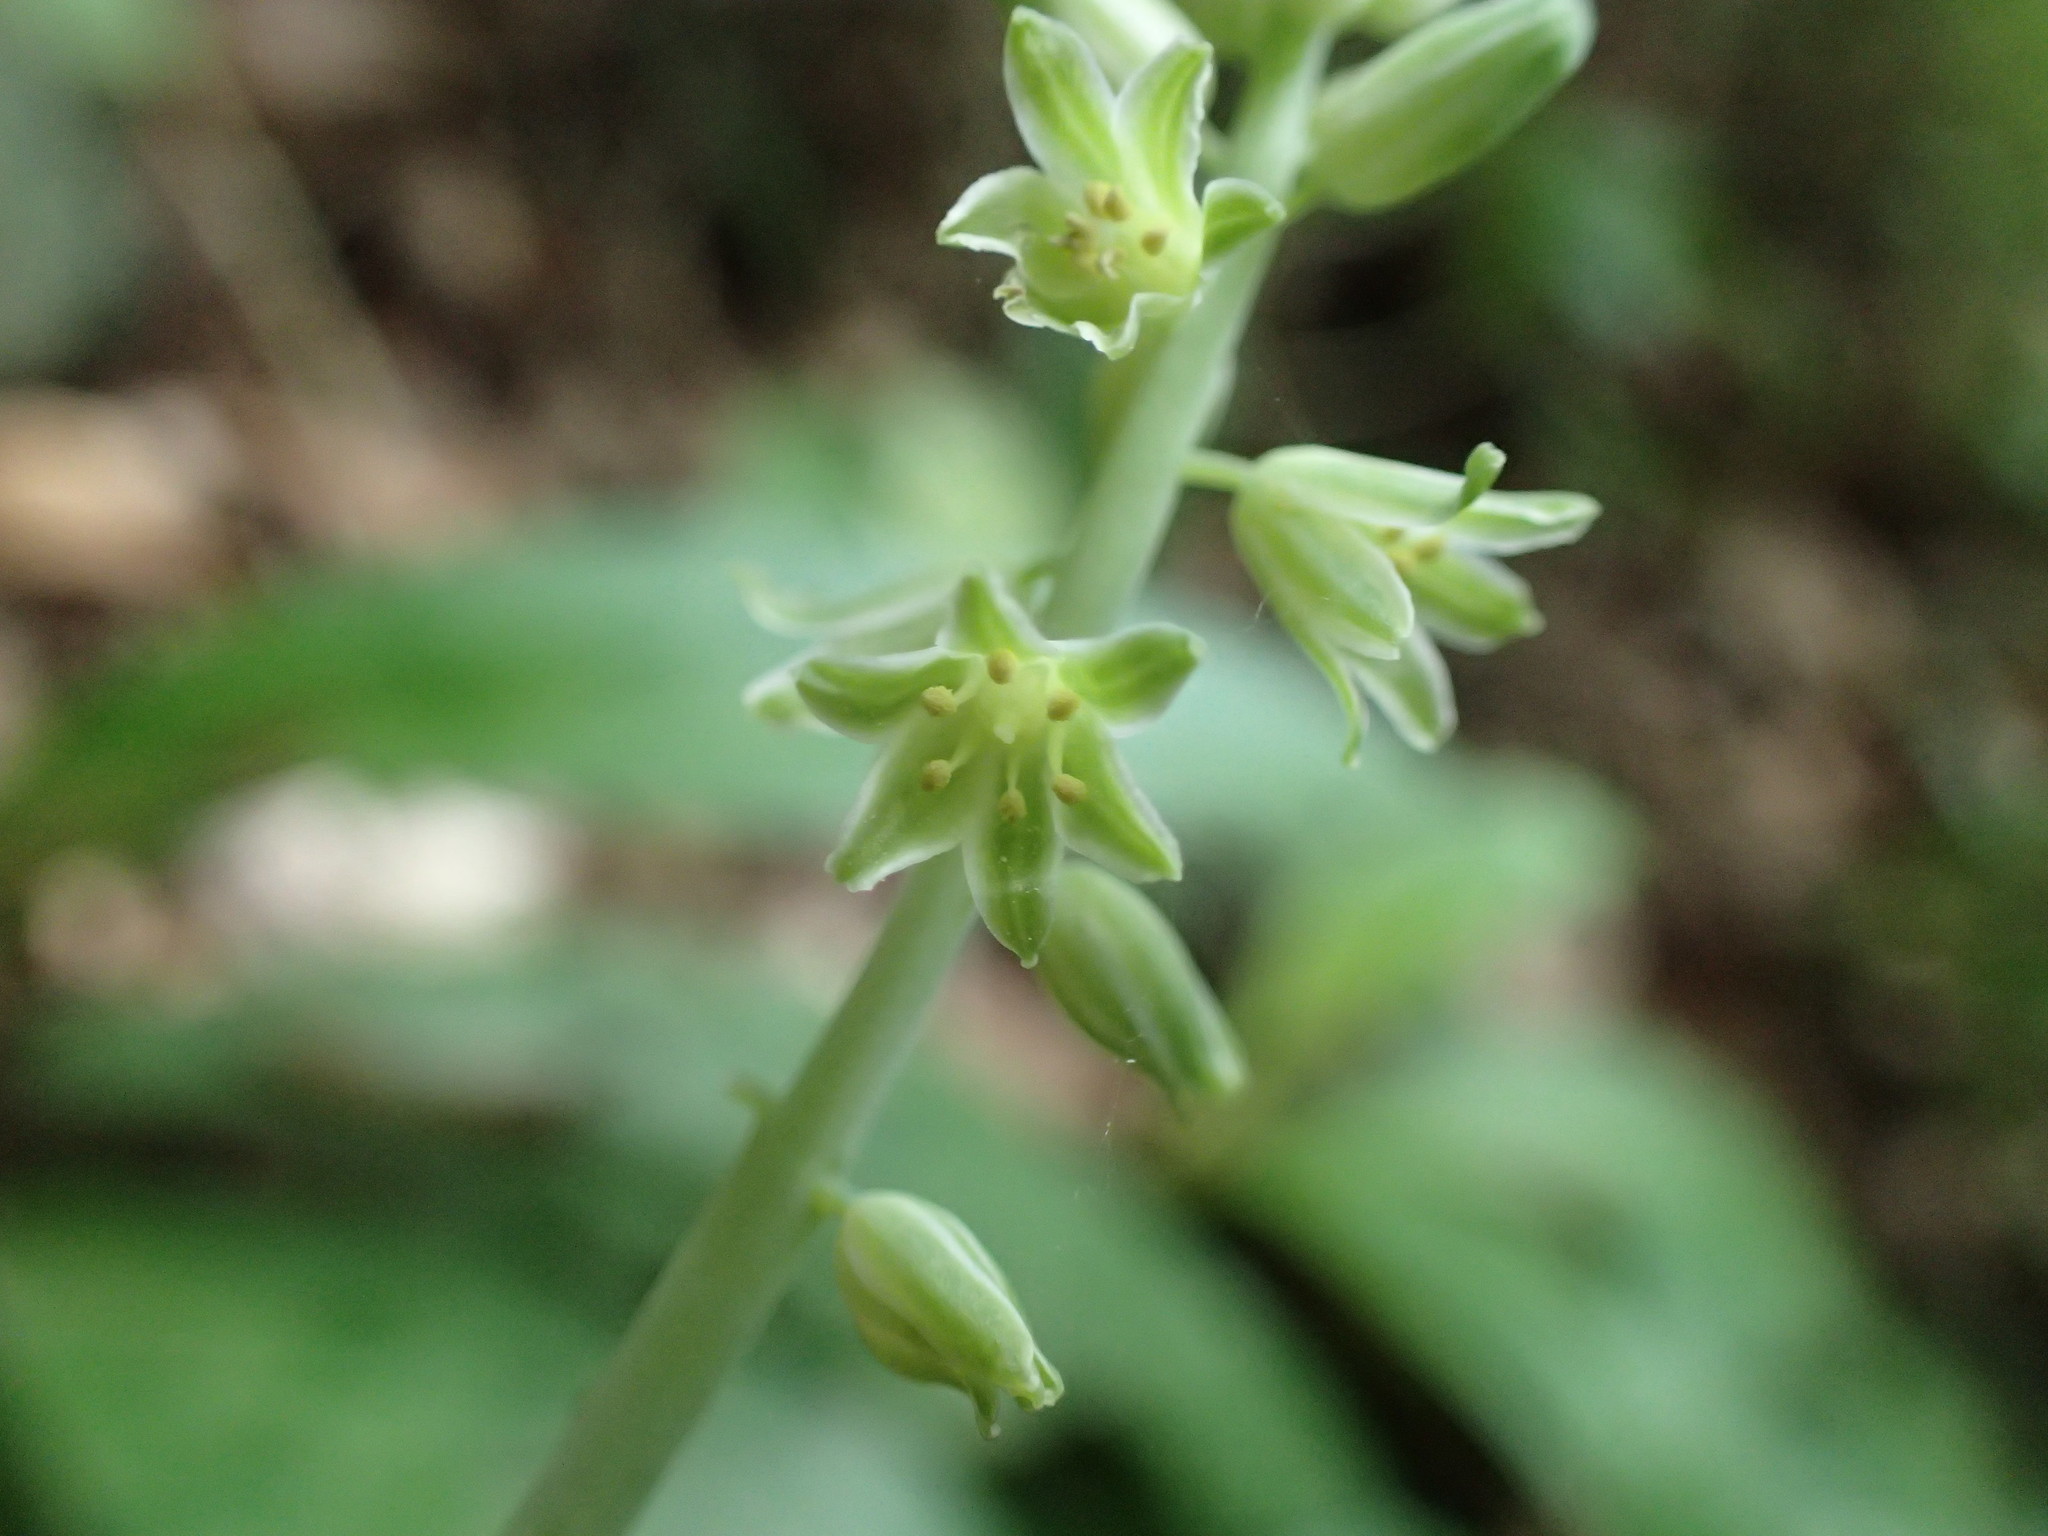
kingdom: Plantae
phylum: Tracheophyta
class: Liliopsida
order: Asparagales
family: Asparagaceae
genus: Resnova
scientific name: Resnova humifusa
